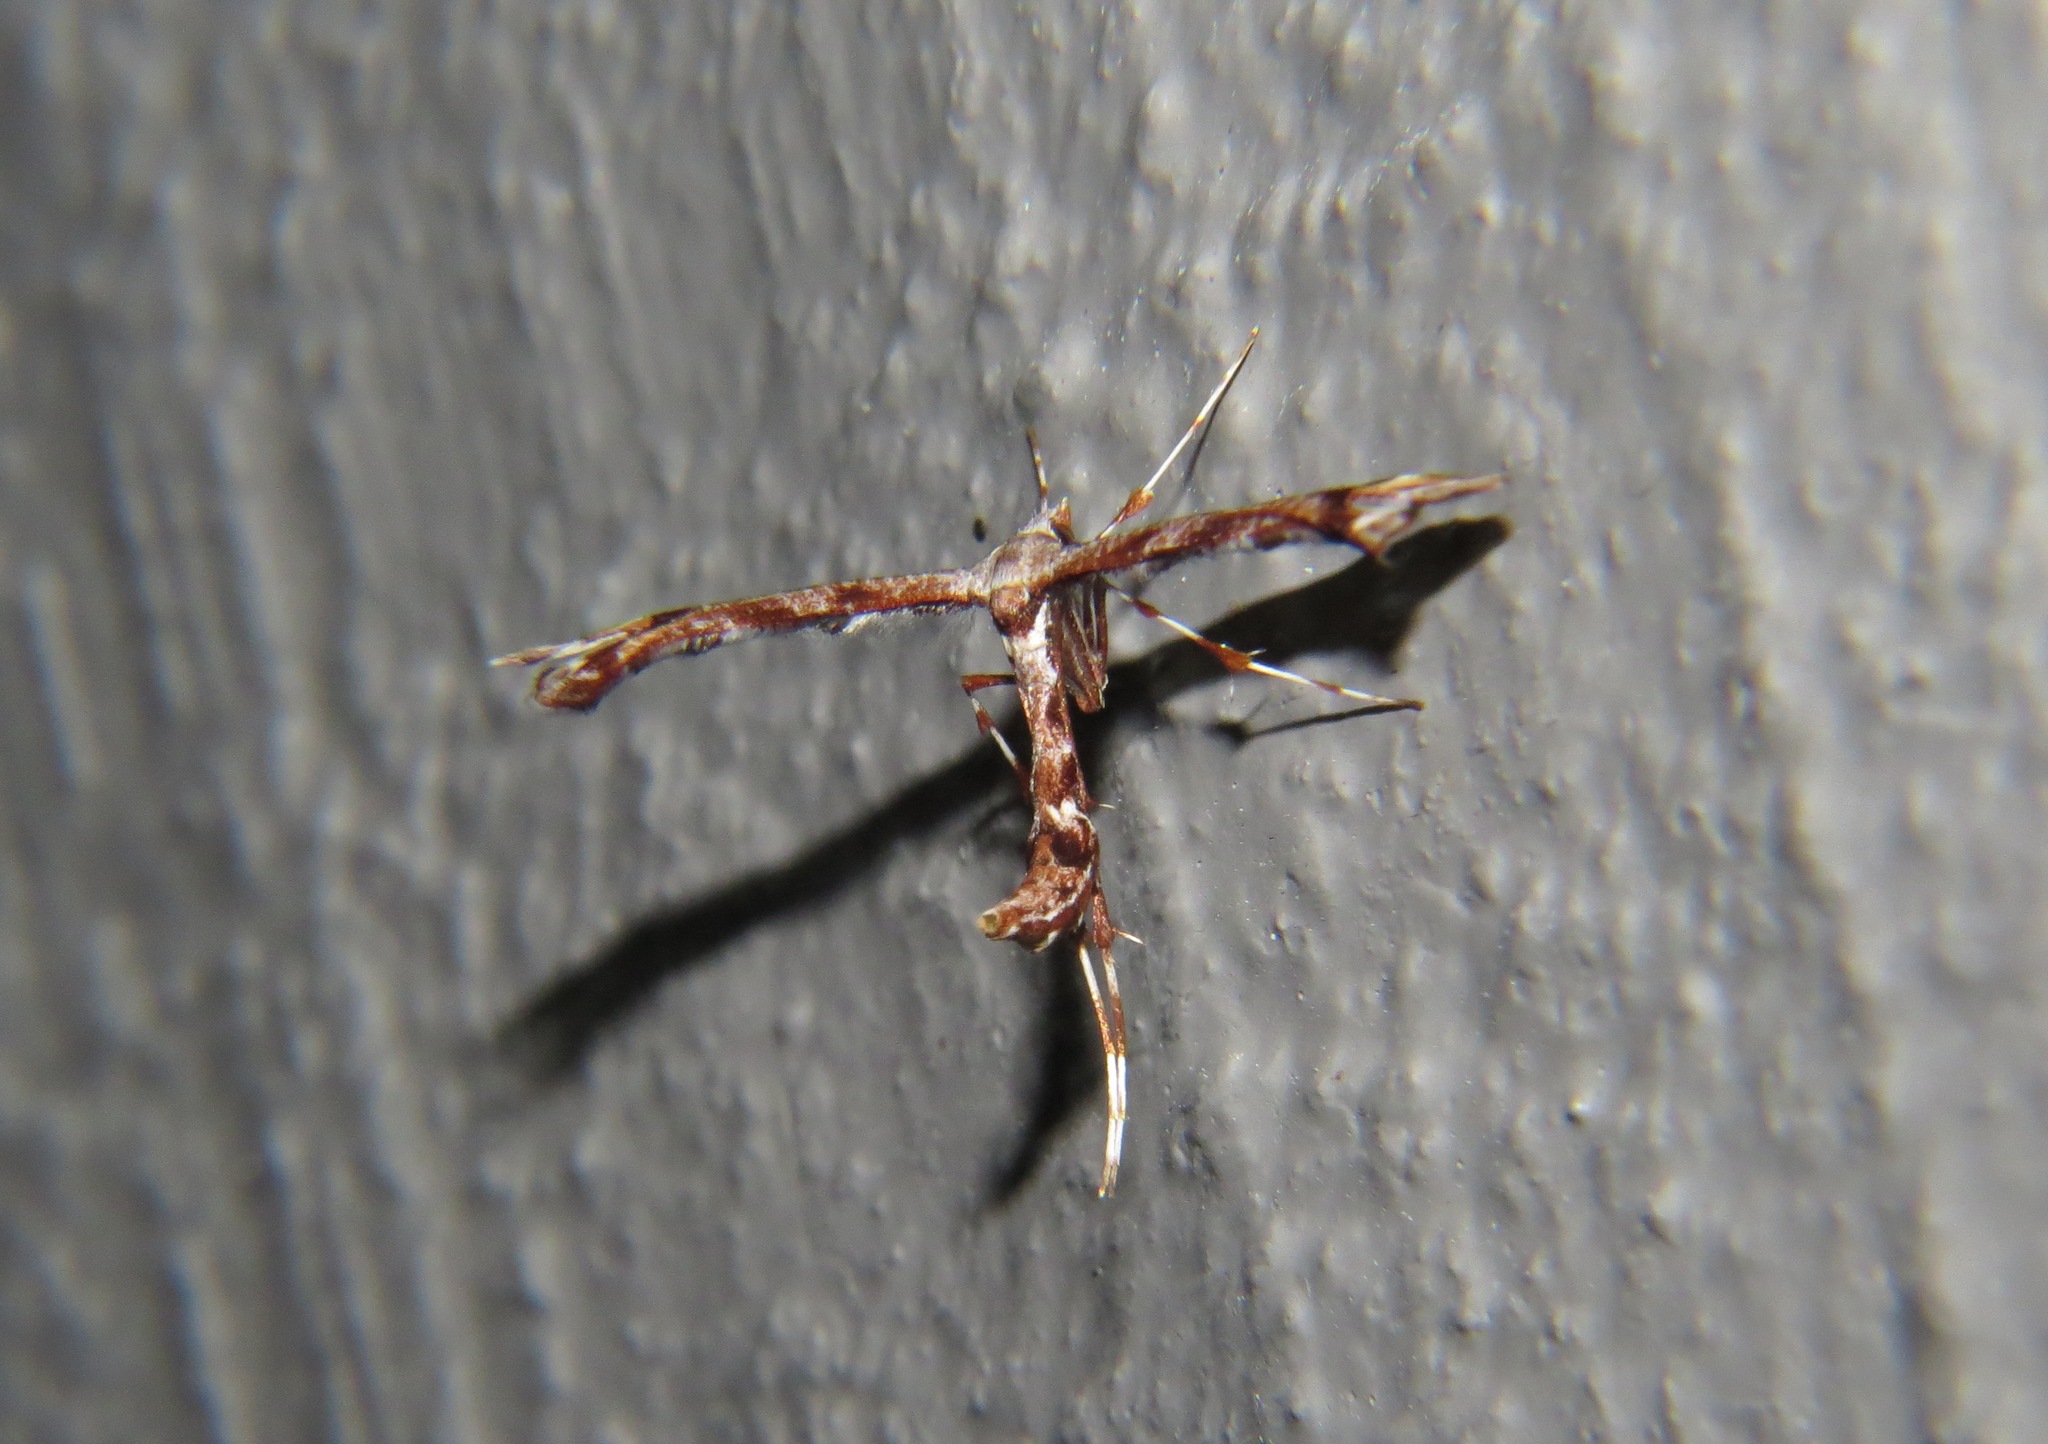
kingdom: Animalia
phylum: Arthropoda
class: Insecta
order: Lepidoptera
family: Pterophoridae
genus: Amblyptilia
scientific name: Amblyptilia falcatalis
